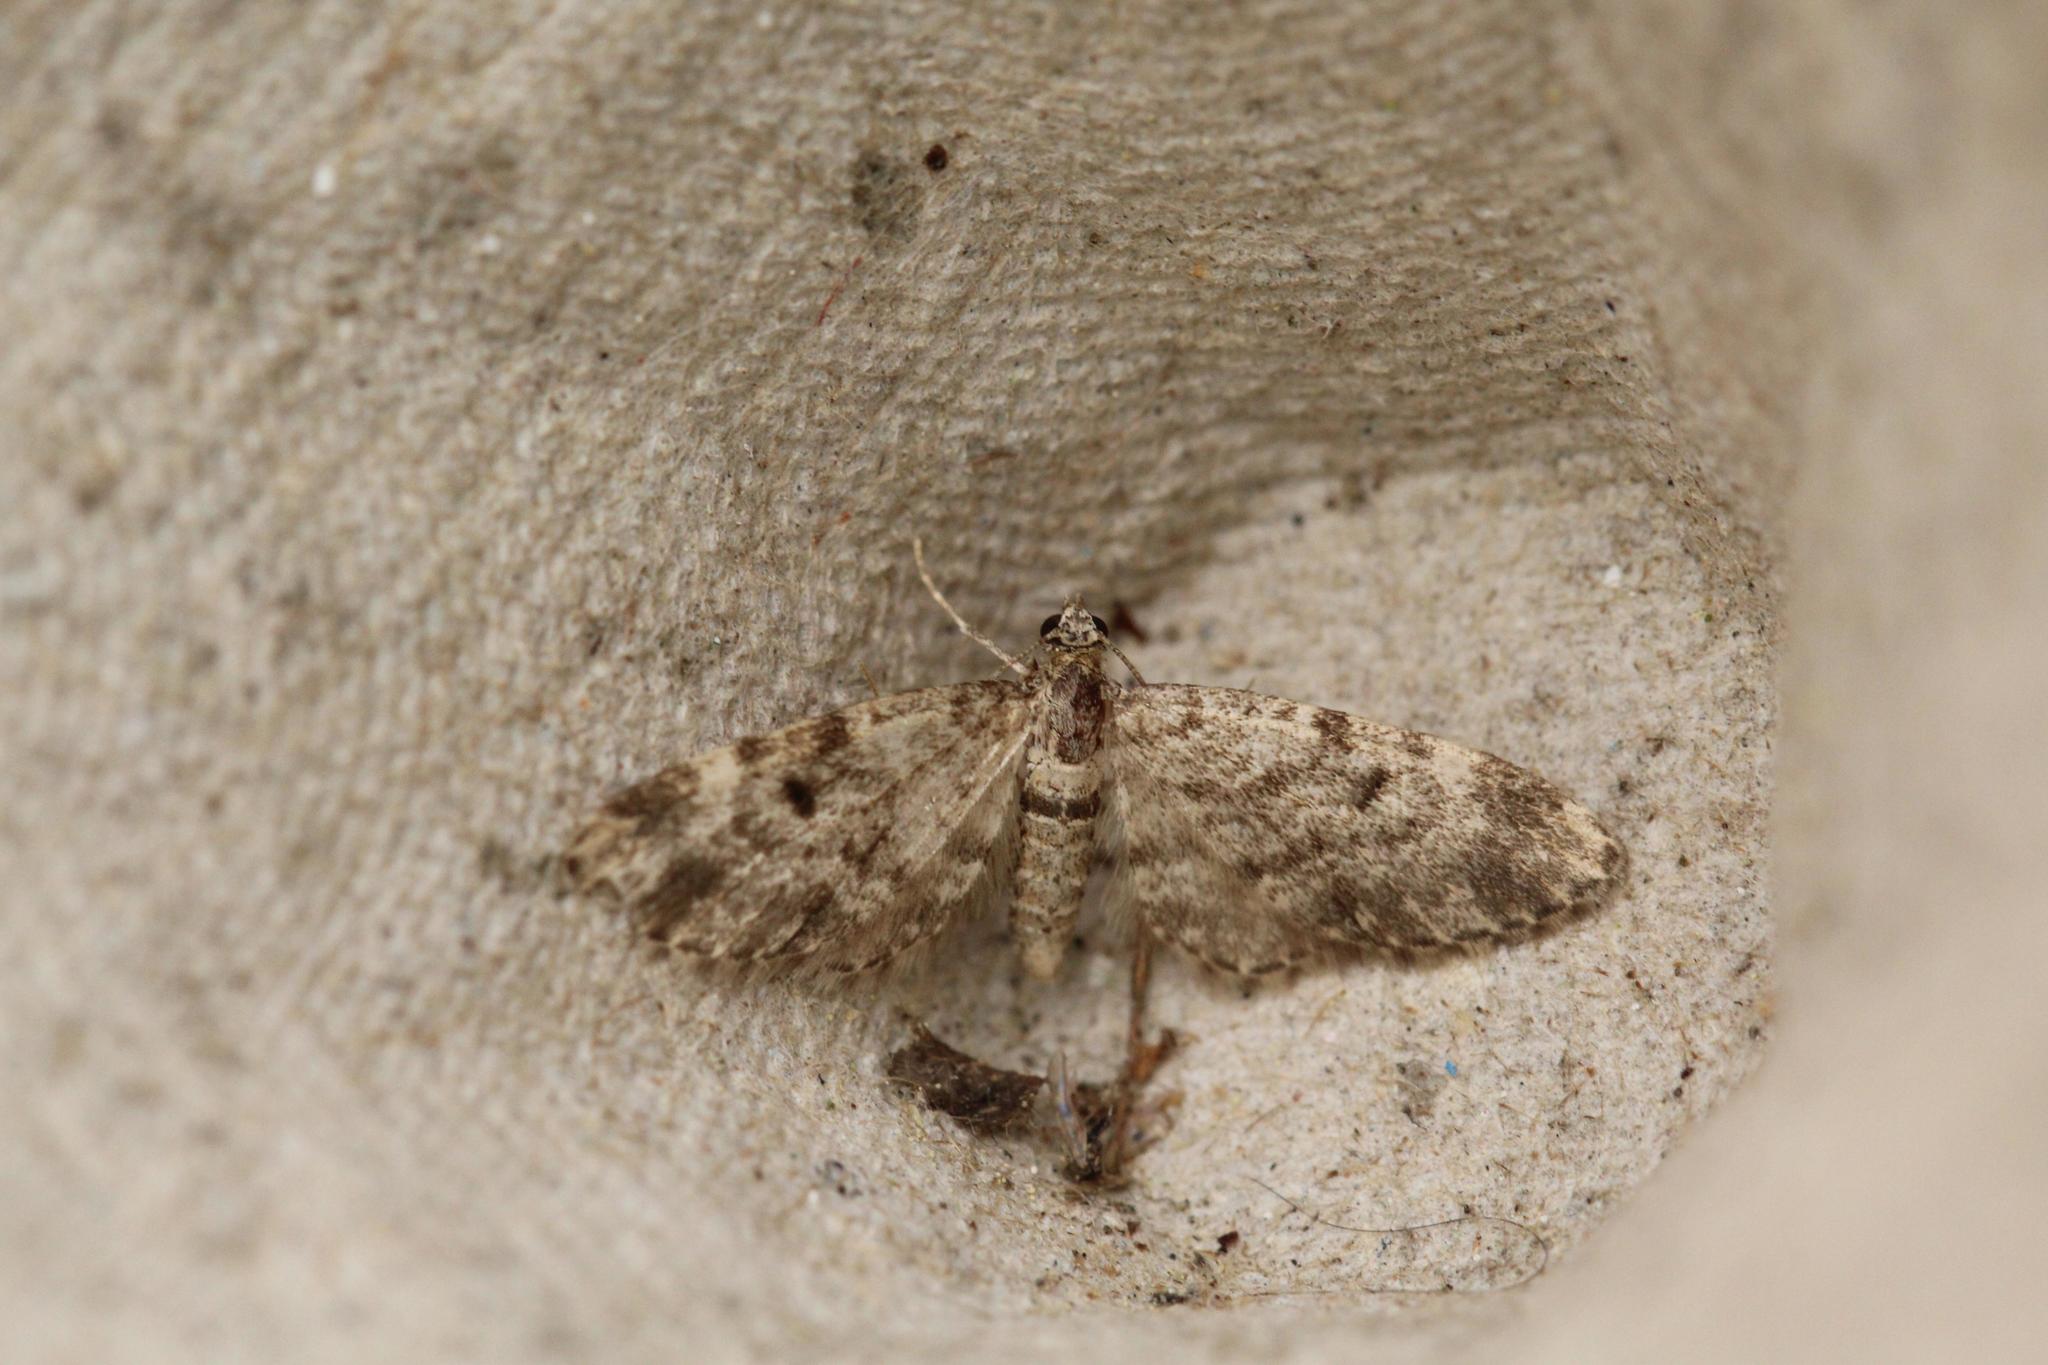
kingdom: Animalia
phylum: Arthropoda
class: Insecta
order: Lepidoptera
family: Geometridae
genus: Eupithecia
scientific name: Eupithecia tantillaria
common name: Dwarf pug
